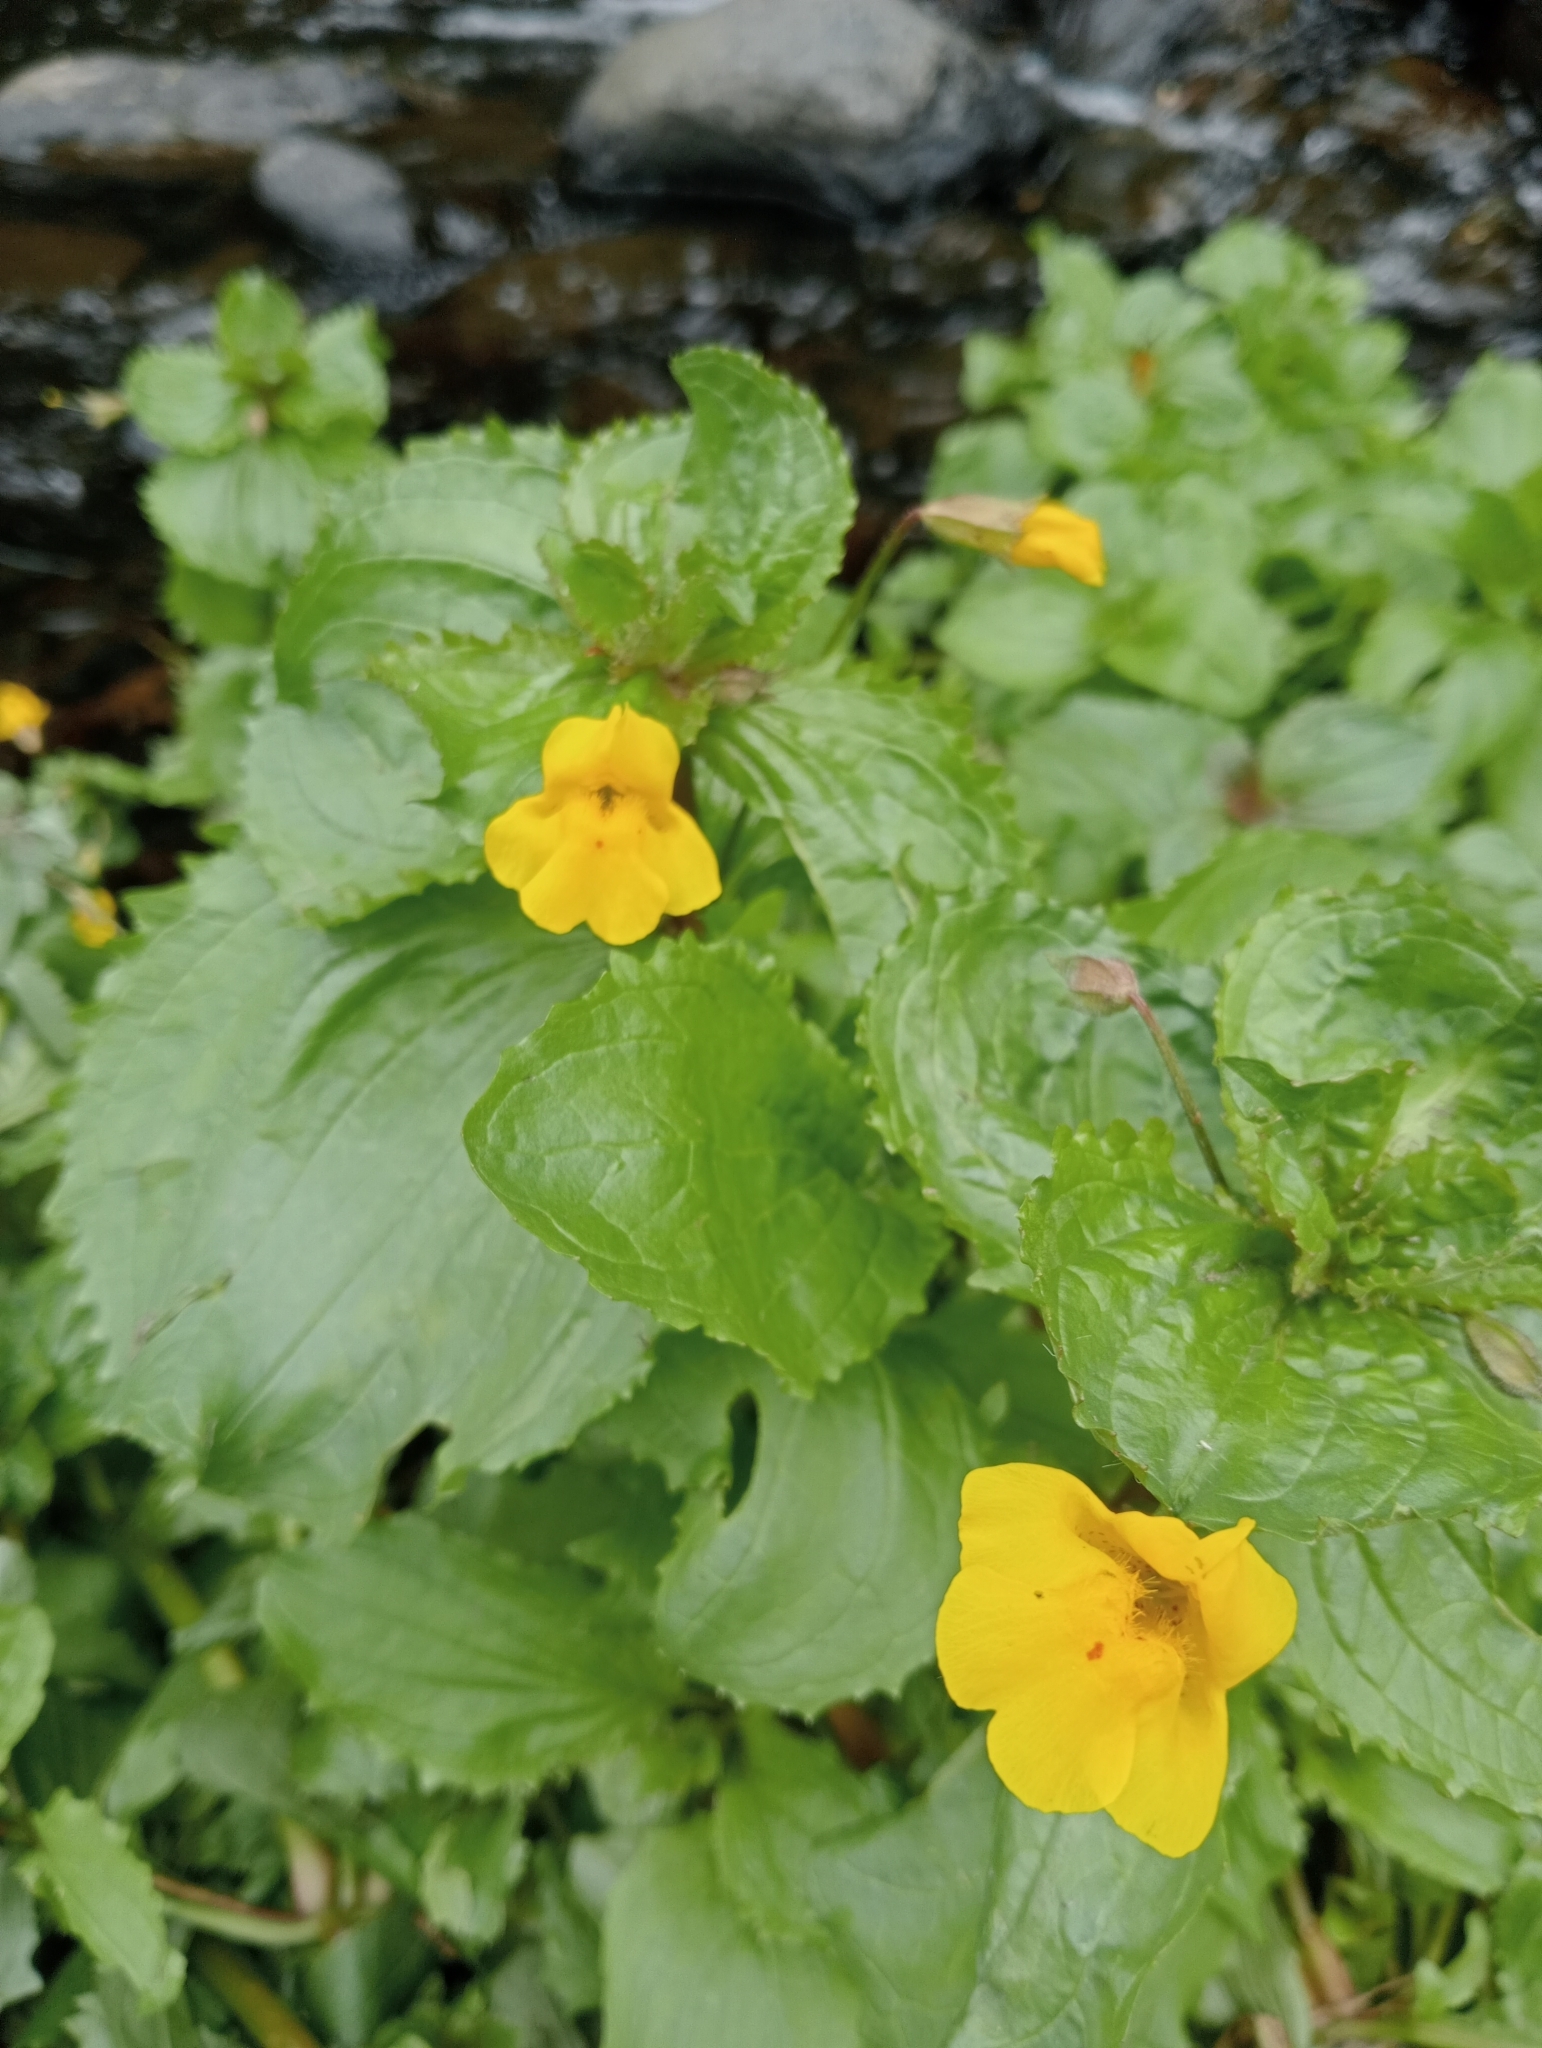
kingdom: Plantae
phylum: Tracheophyta
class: Magnoliopsida
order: Lamiales
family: Phrymaceae
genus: Erythranthe
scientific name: Erythranthe guttata
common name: Monkeyflower
